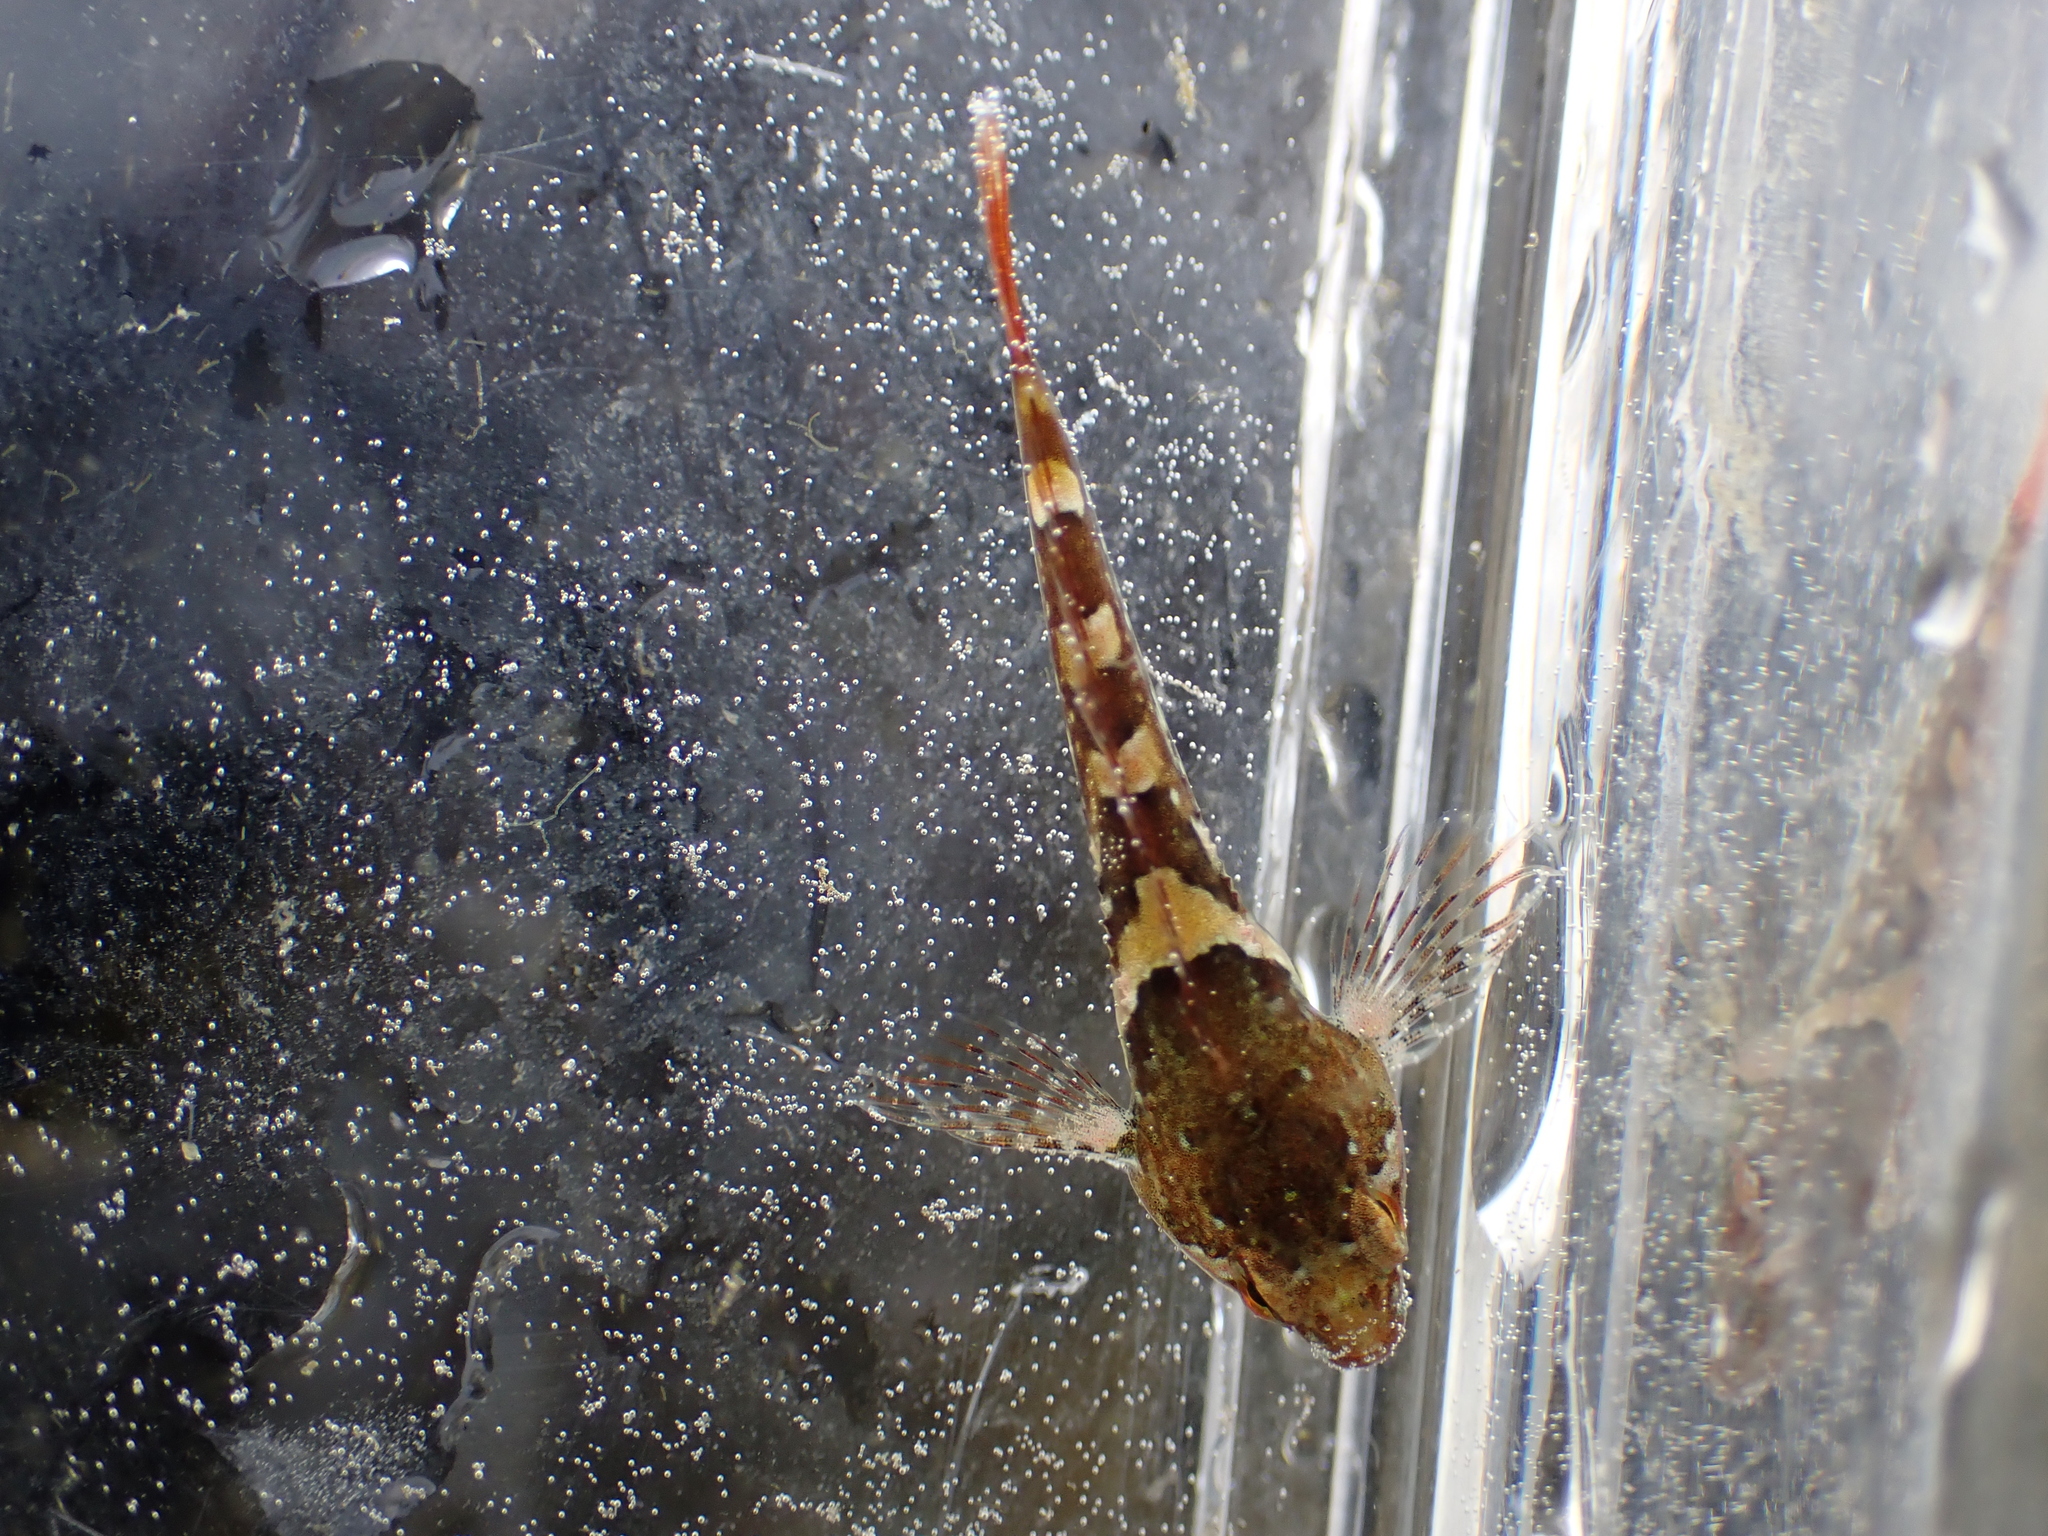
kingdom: Animalia
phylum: Chordata
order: Scorpaeniformes
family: Cottidae
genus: Oligocottus
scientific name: Oligocottus maculosus
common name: Tidepool sculpin
